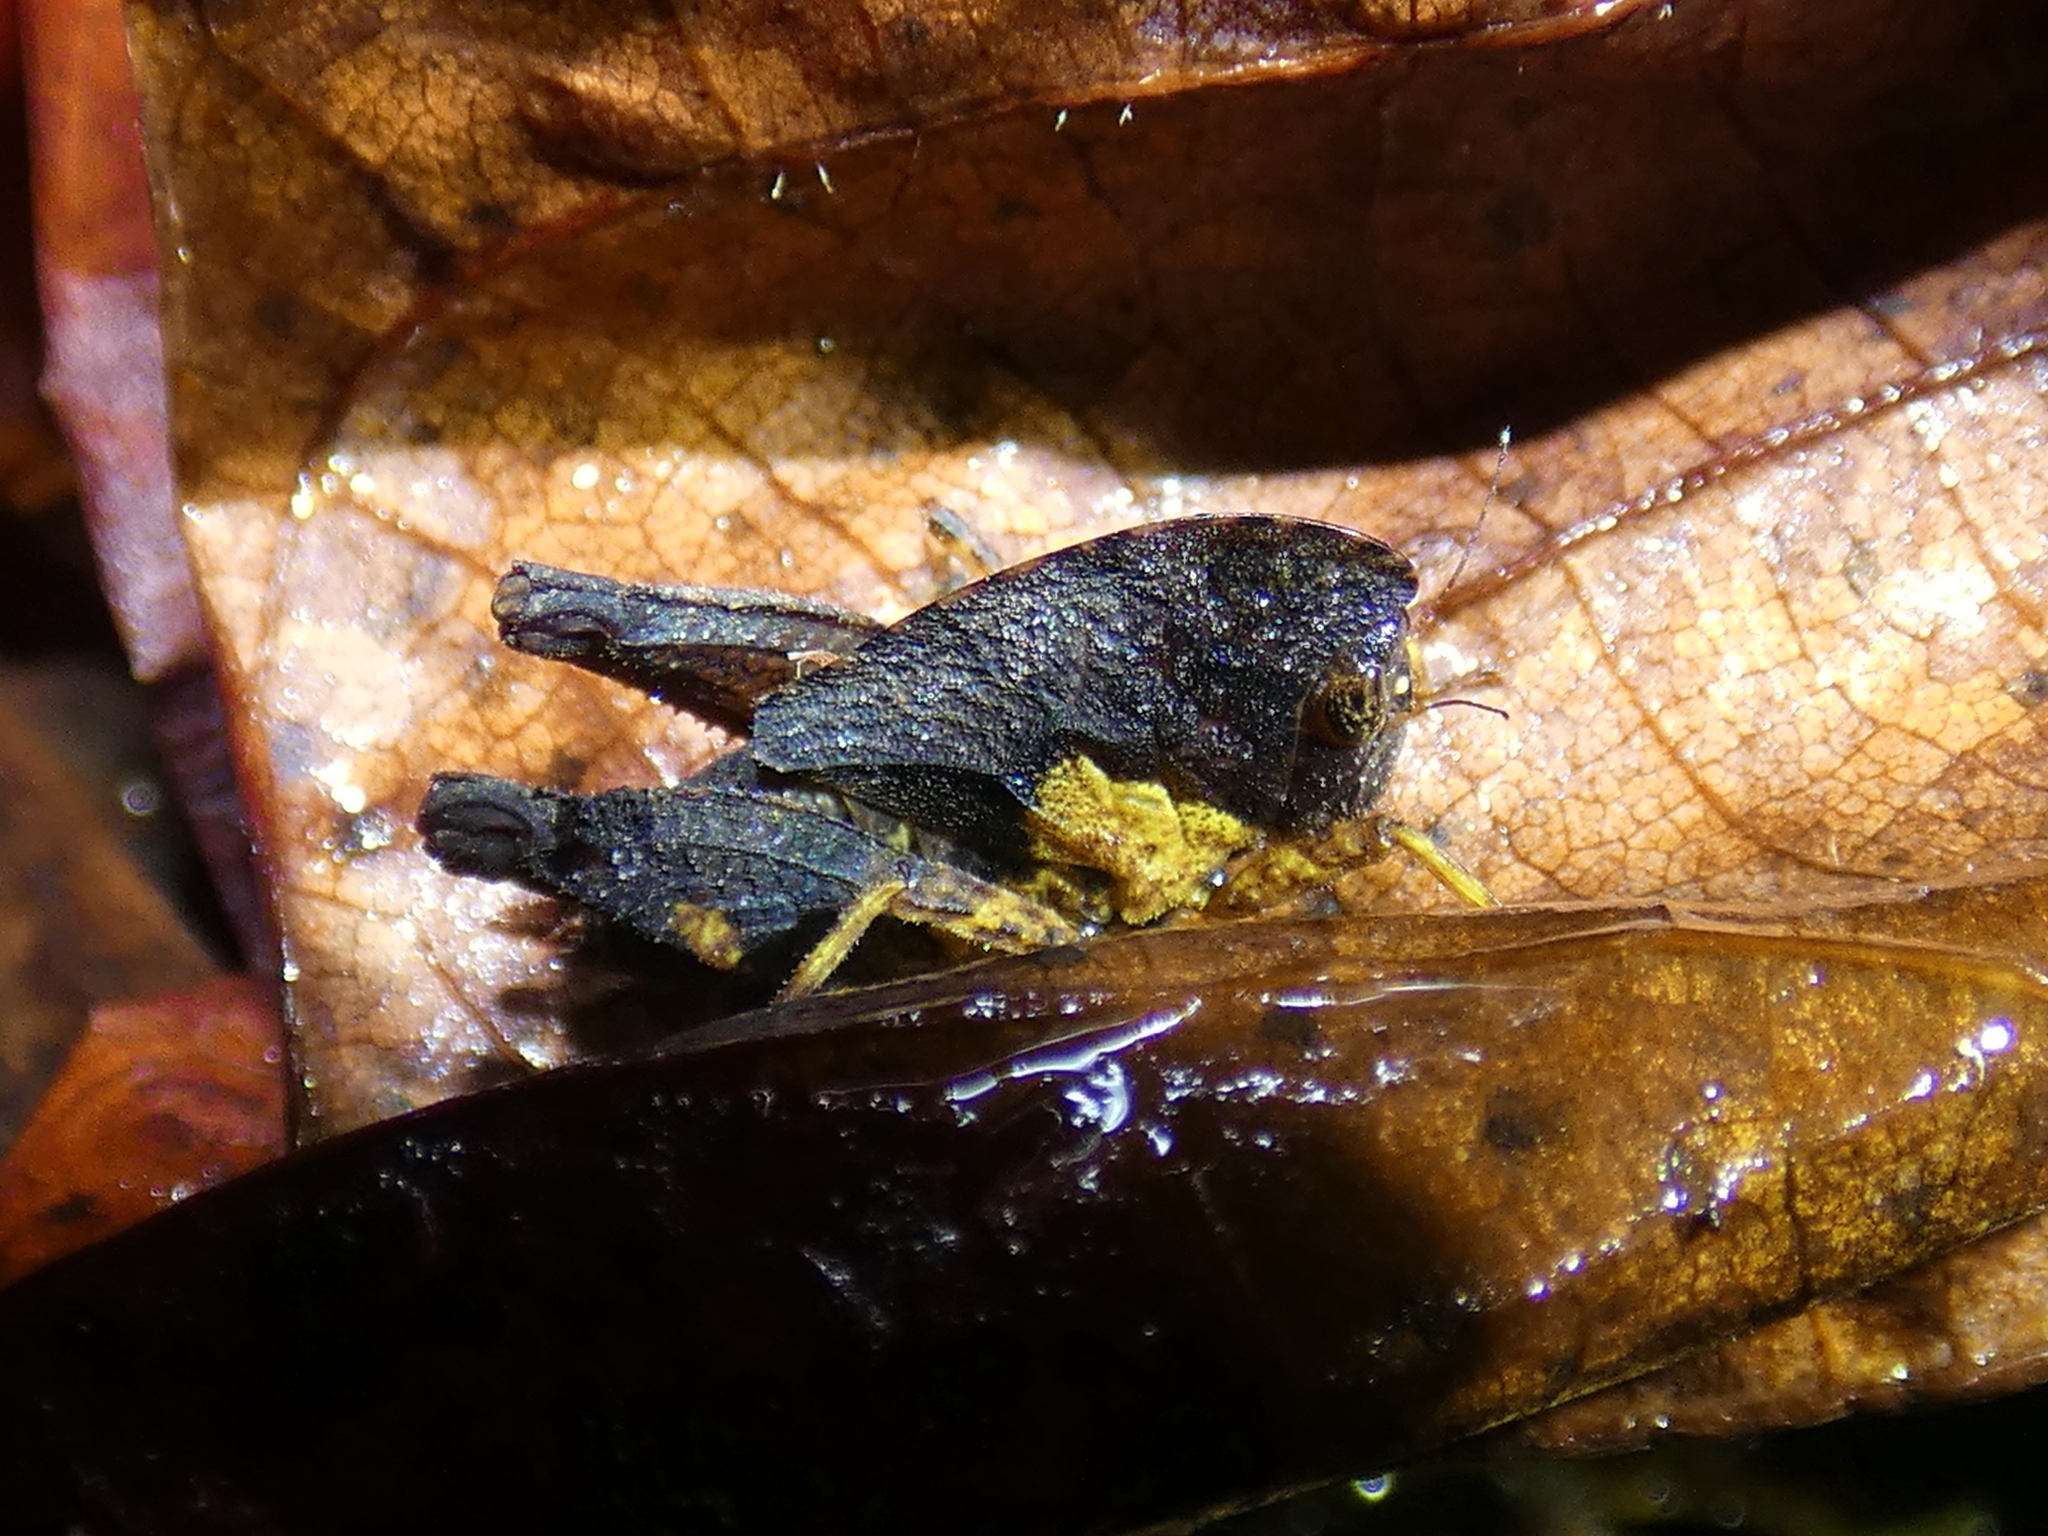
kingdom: Animalia
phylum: Arthropoda
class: Insecta
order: Orthoptera
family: Tetrigidae
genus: Selivinga
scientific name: Selivinga tribulata
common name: Tribulation helmed groundhopper
